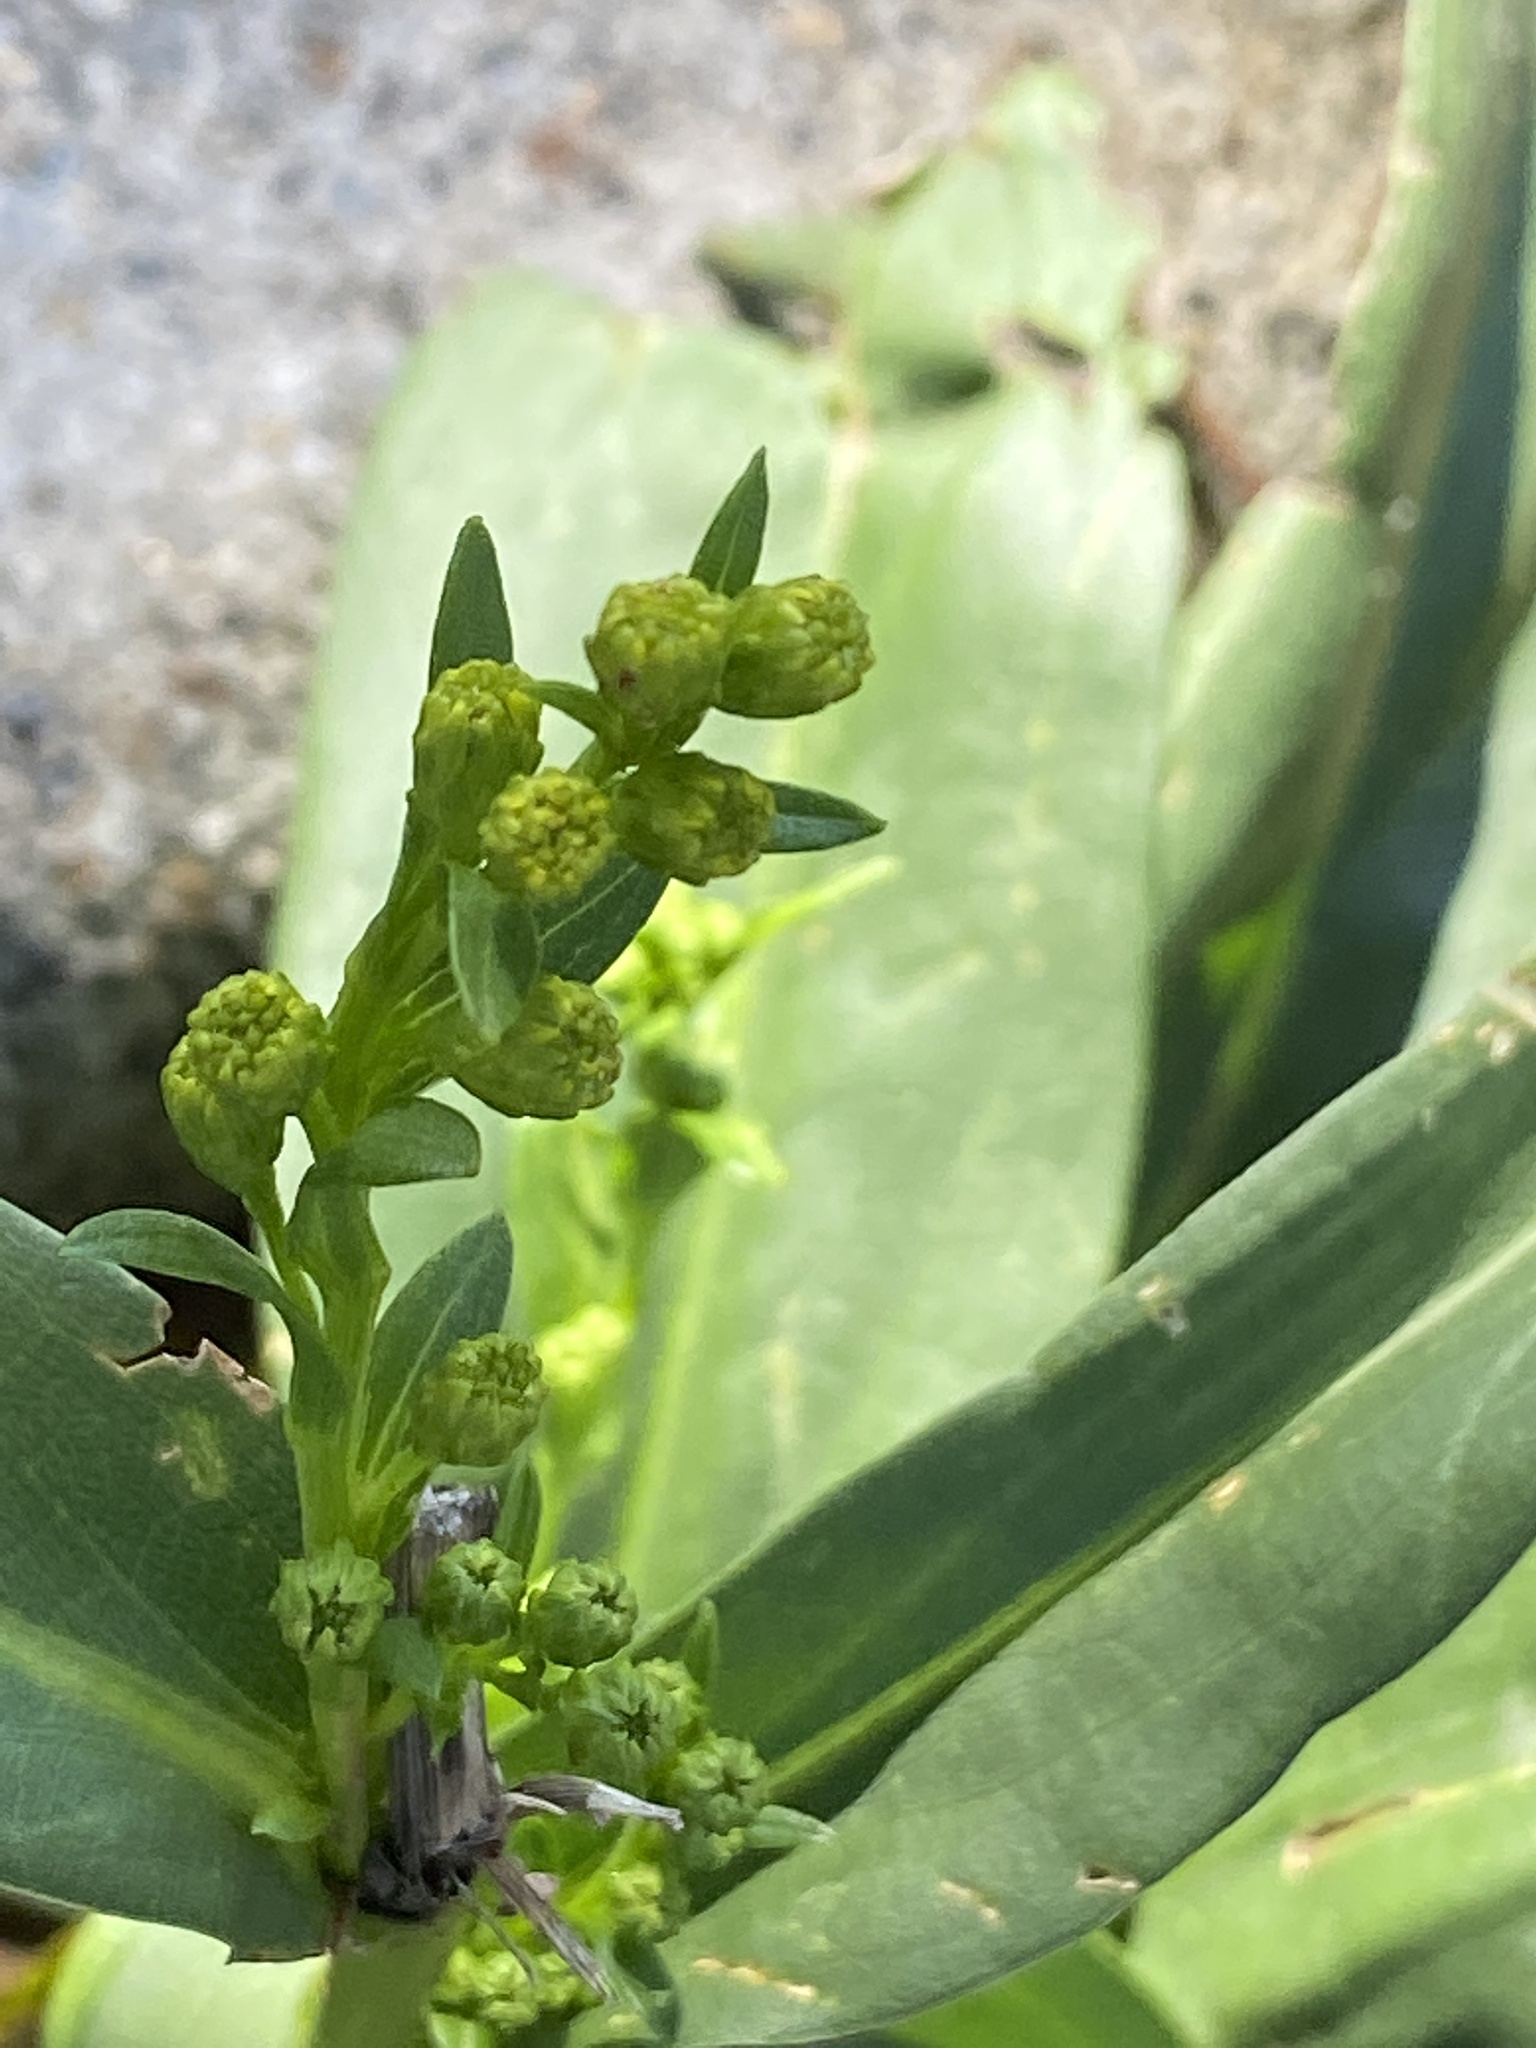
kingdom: Plantae
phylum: Tracheophyta
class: Magnoliopsida
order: Asterales
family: Asteraceae
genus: Solidago
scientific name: Solidago sempervirens
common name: Salt-marsh goldenrod
